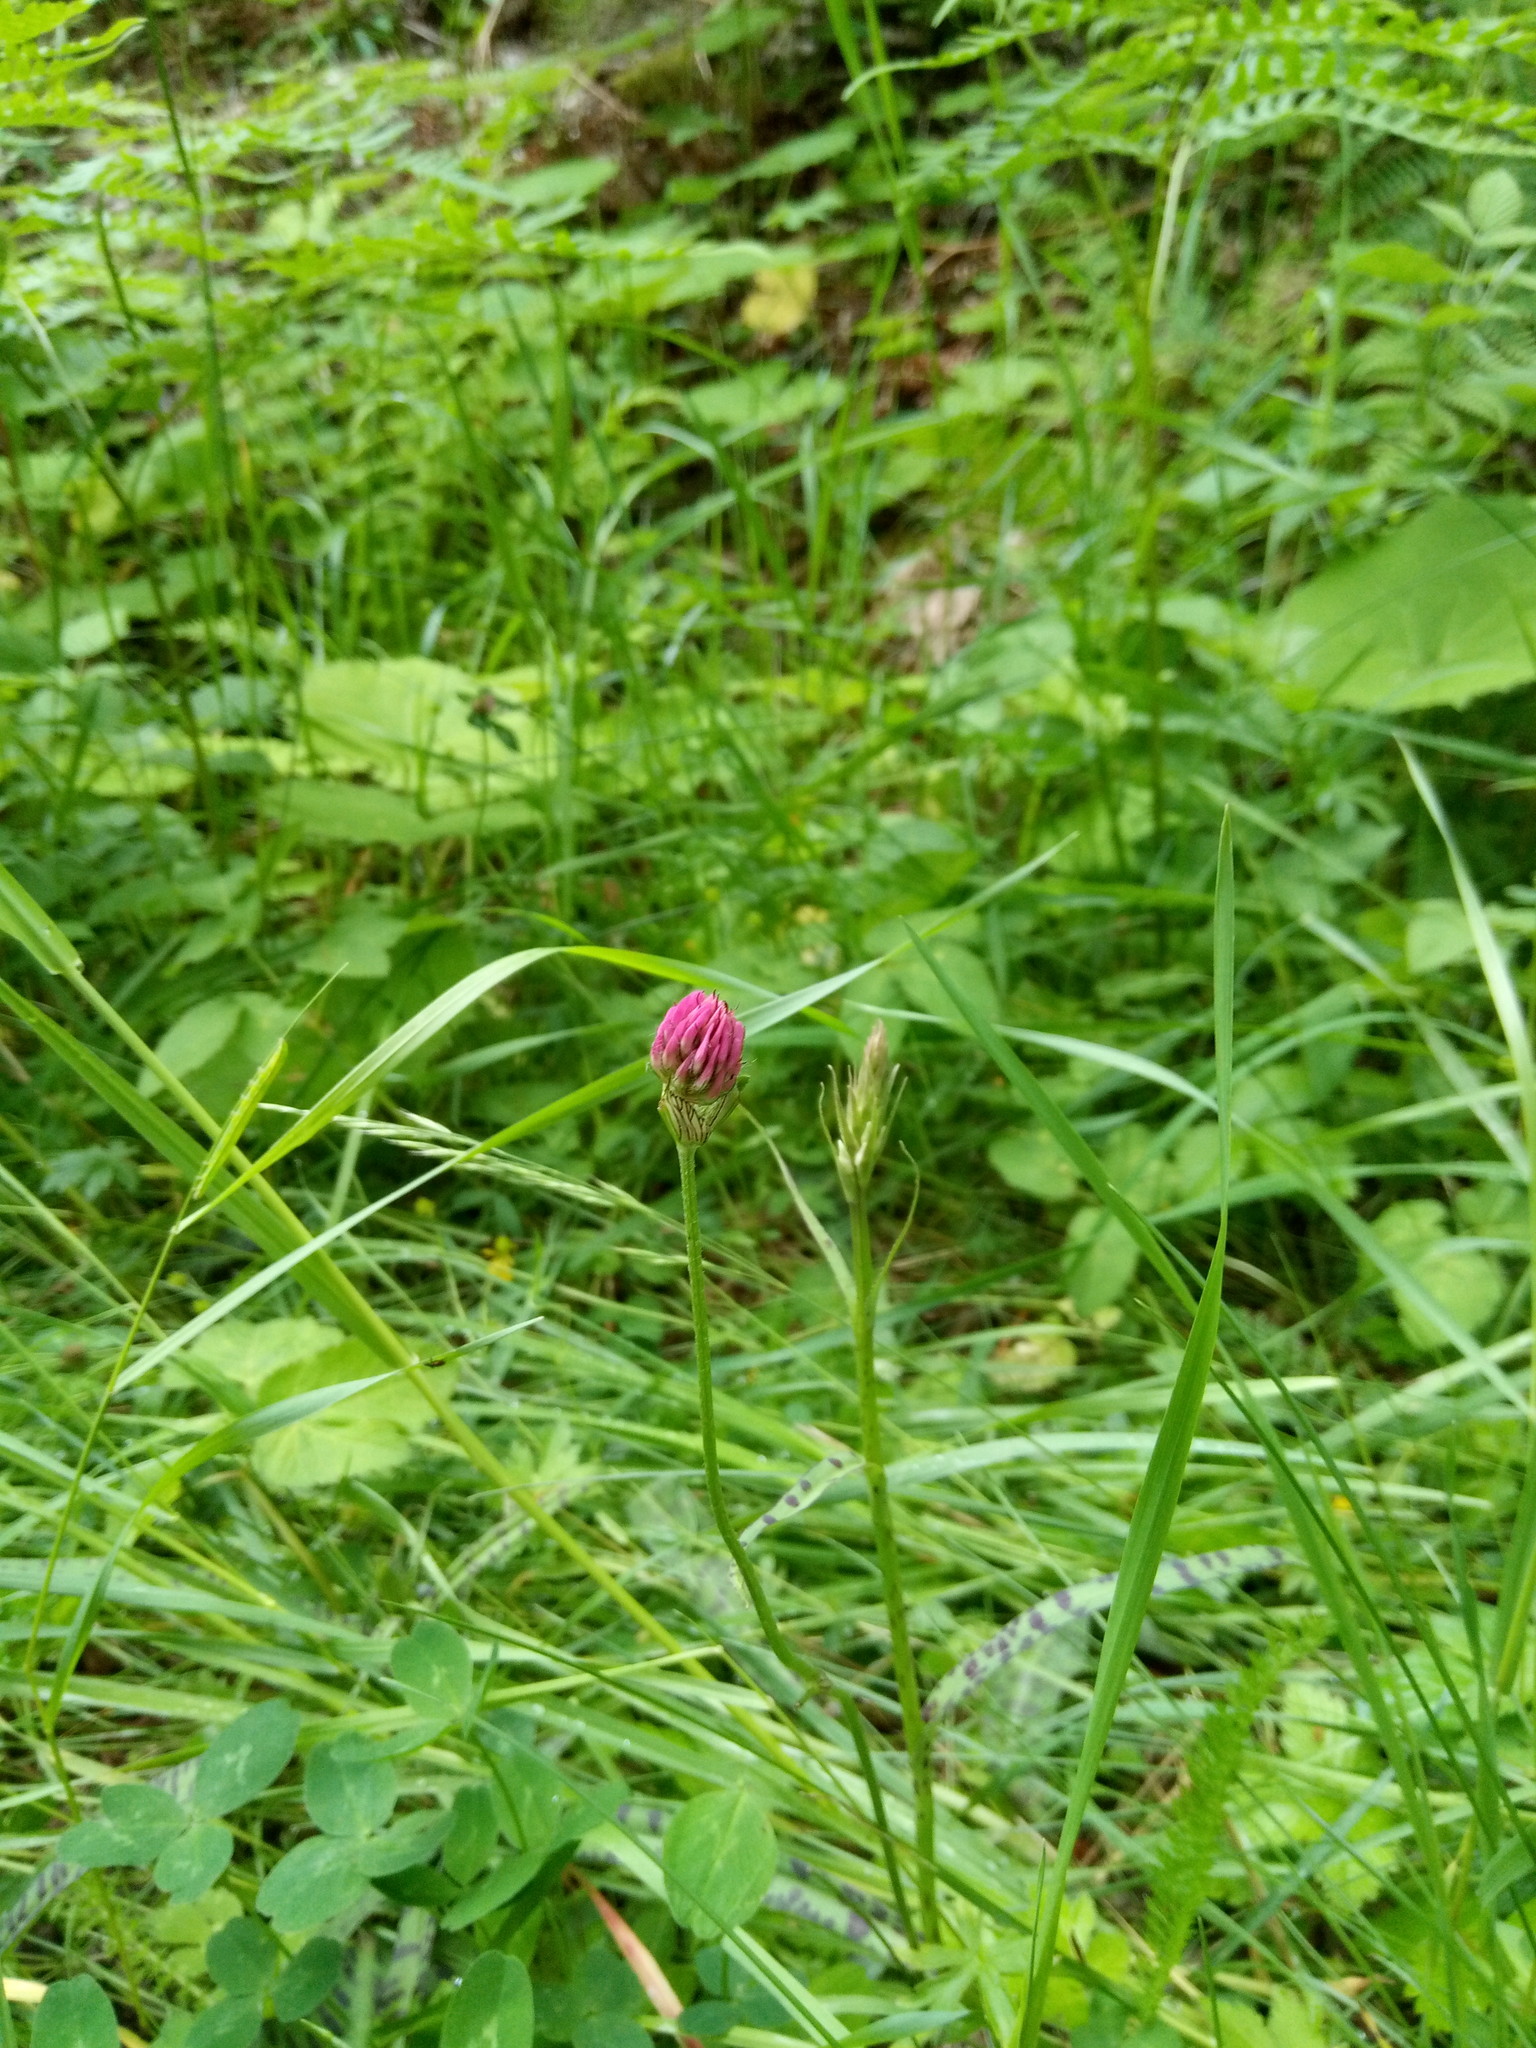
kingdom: Plantae
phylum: Tracheophyta
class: Liliopsida
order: Asparagales
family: Orchidaceae
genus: Dactylorhiza
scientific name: Dactylorhiza maculata
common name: Heath spotted-orchid
